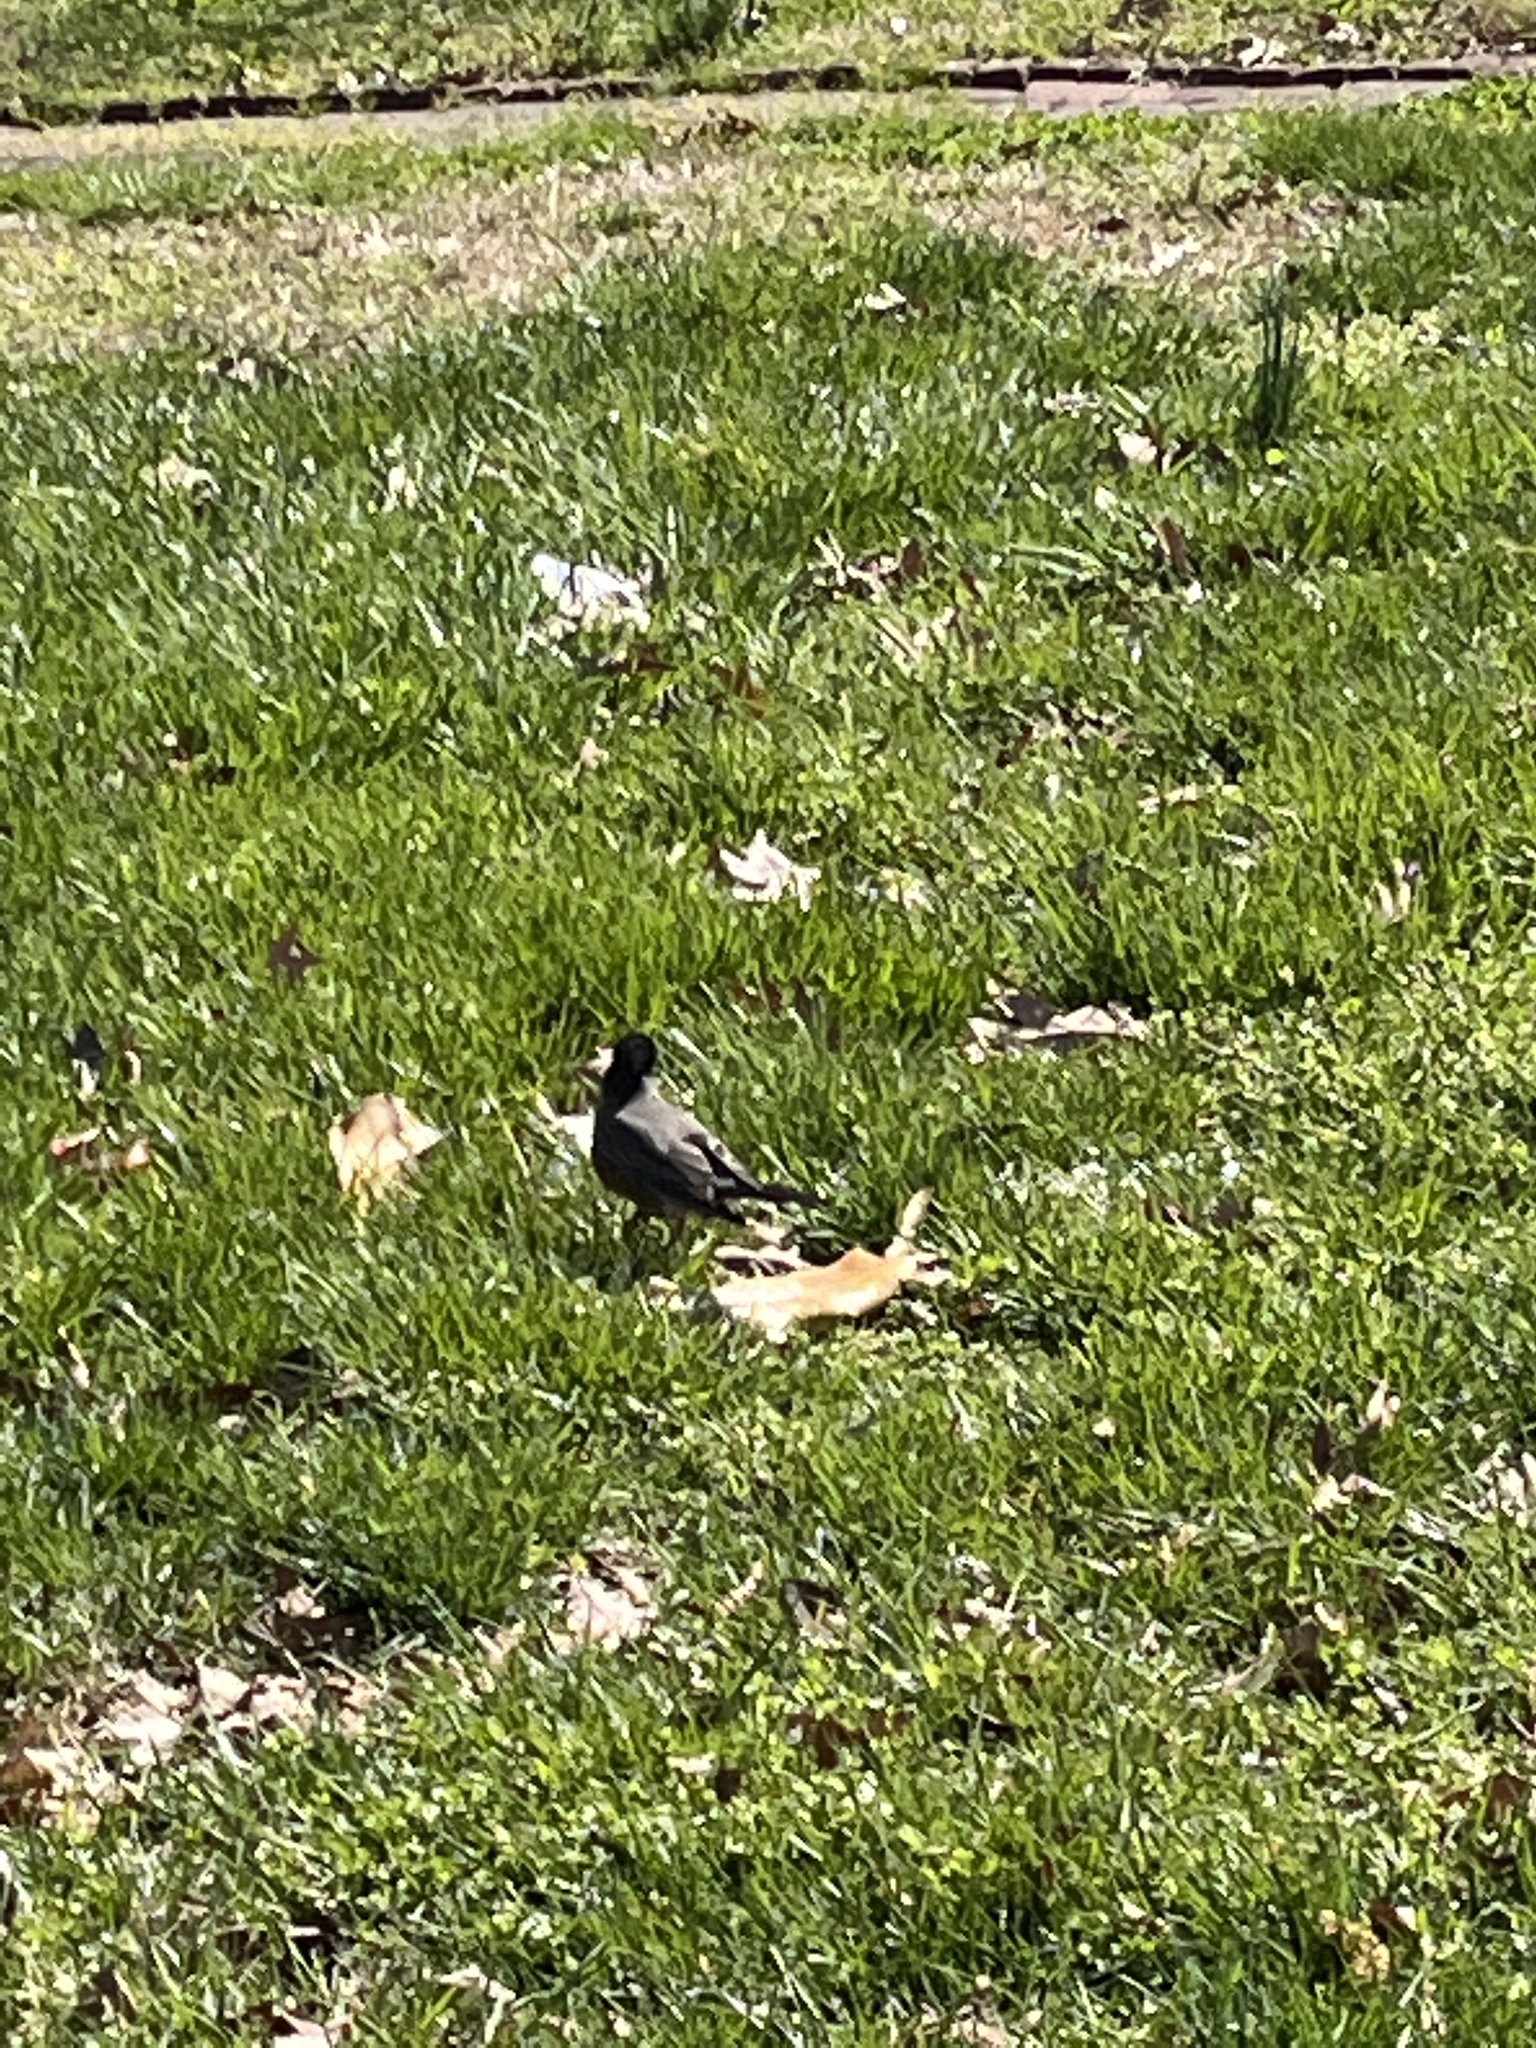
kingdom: Animalia
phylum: Chordata
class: Aves
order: Passeriformes
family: Turdidae
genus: Turdus
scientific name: Turdus migratorius
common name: American robin
